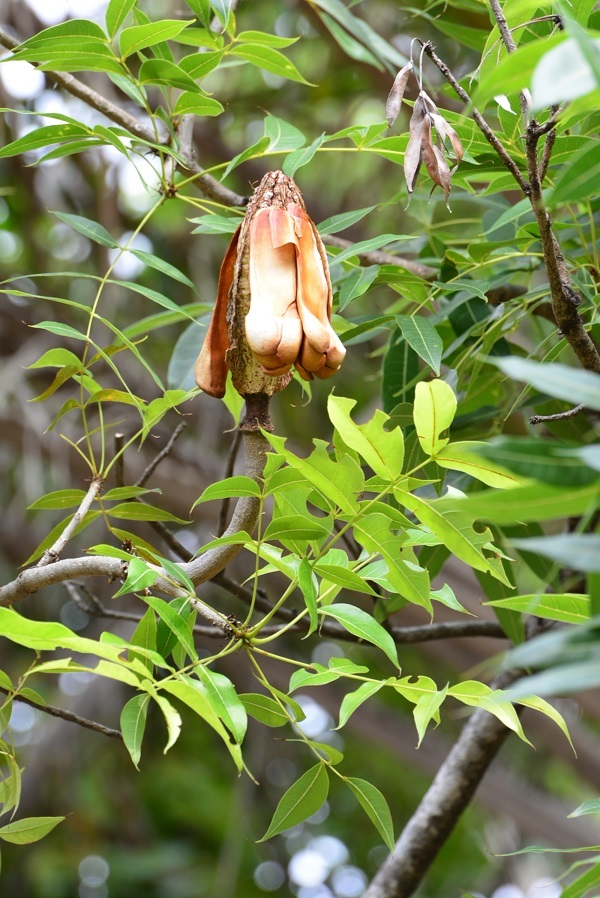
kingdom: Plantae
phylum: Tracheophyta
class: Magnoliopsida
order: Sapindales
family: Meliaceae
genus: Swietenia
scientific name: Swietenia humilis
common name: Pacific coast mahogany
